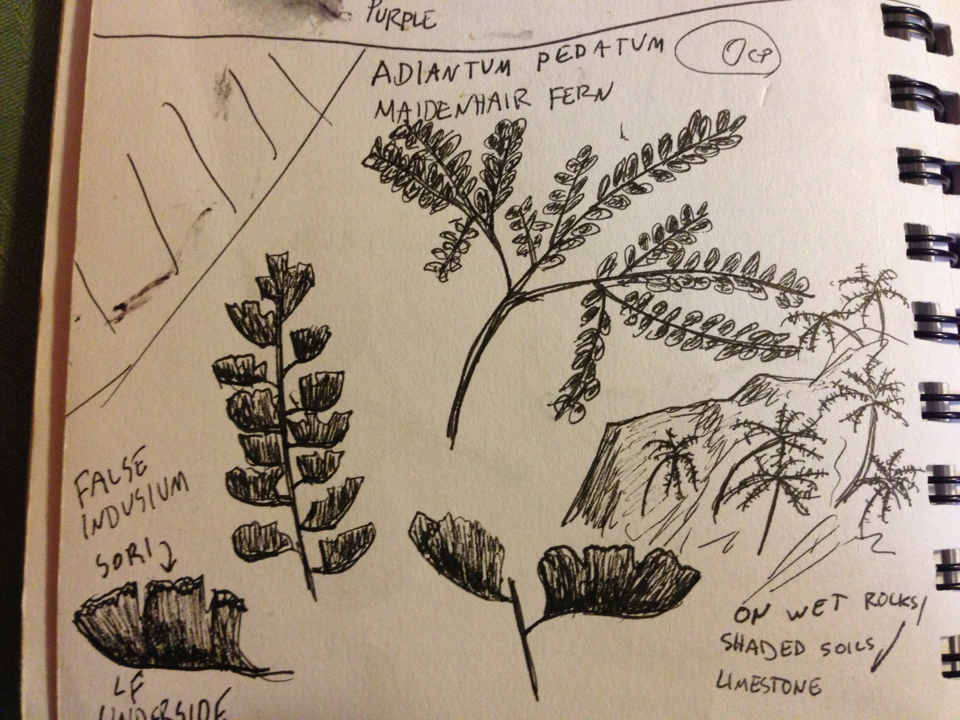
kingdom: Plantae
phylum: Tracheophyta
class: Polypodiopsida
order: Polypodiales
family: Pteridaceae
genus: Adiantum
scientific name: Adiantum pedatum
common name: Five-finger fern
